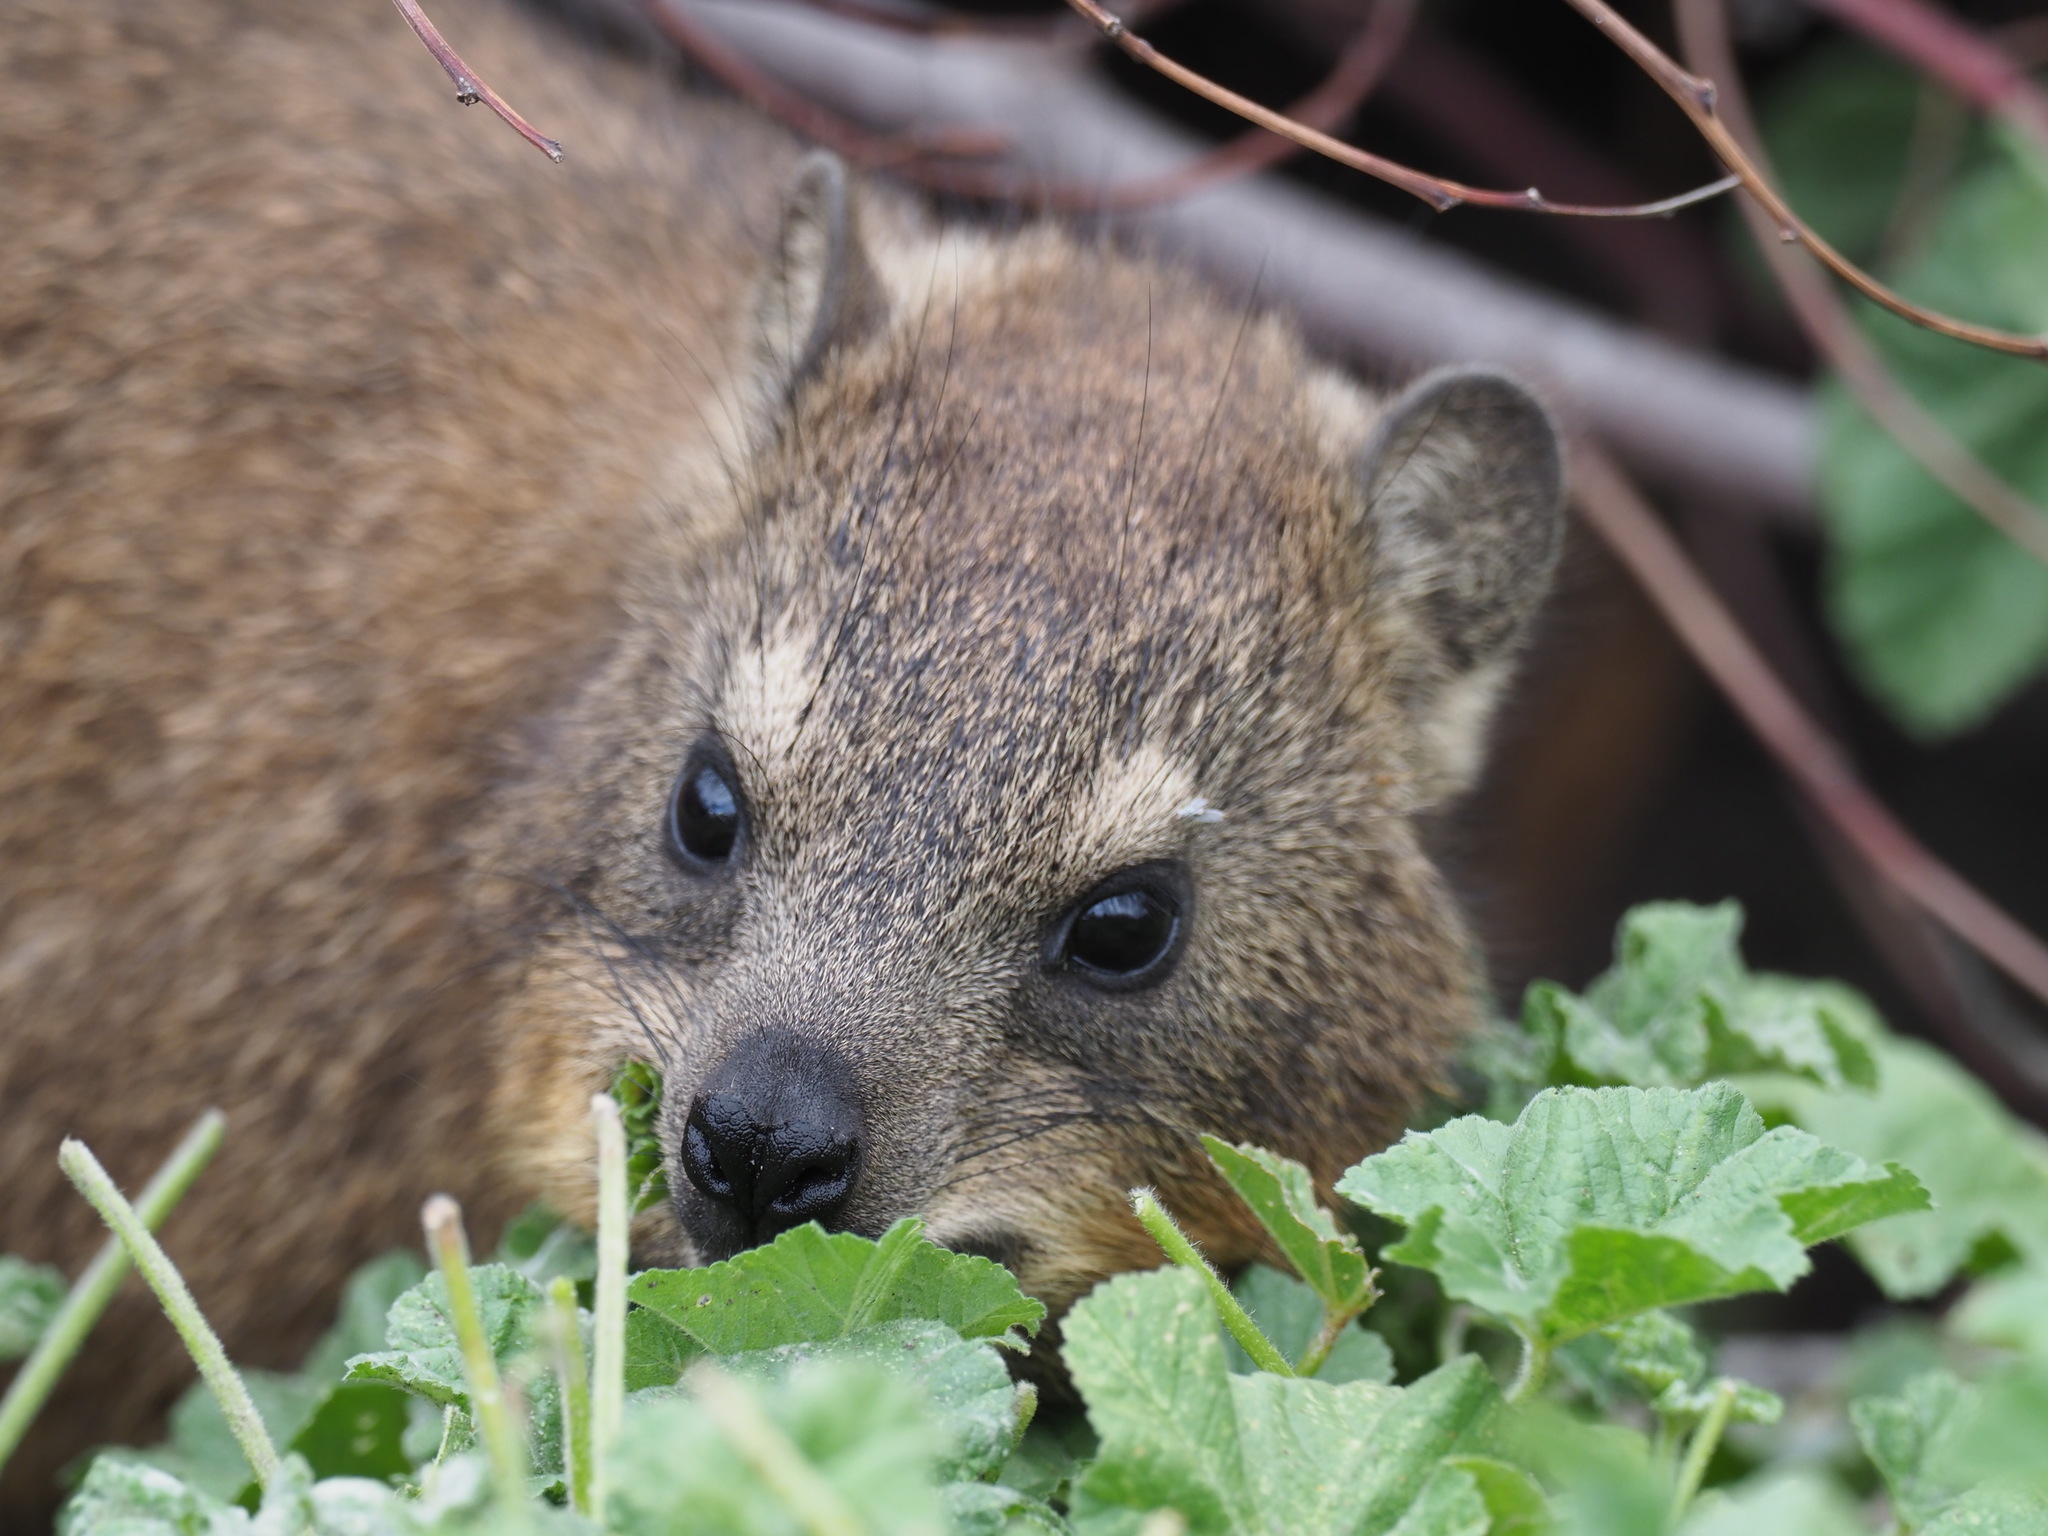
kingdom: Animalia
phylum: Chordata
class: Mammalia
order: Hyracoidea
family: Procaviidae
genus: Procavia
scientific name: Procavia capensis
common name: Rock hyrax
